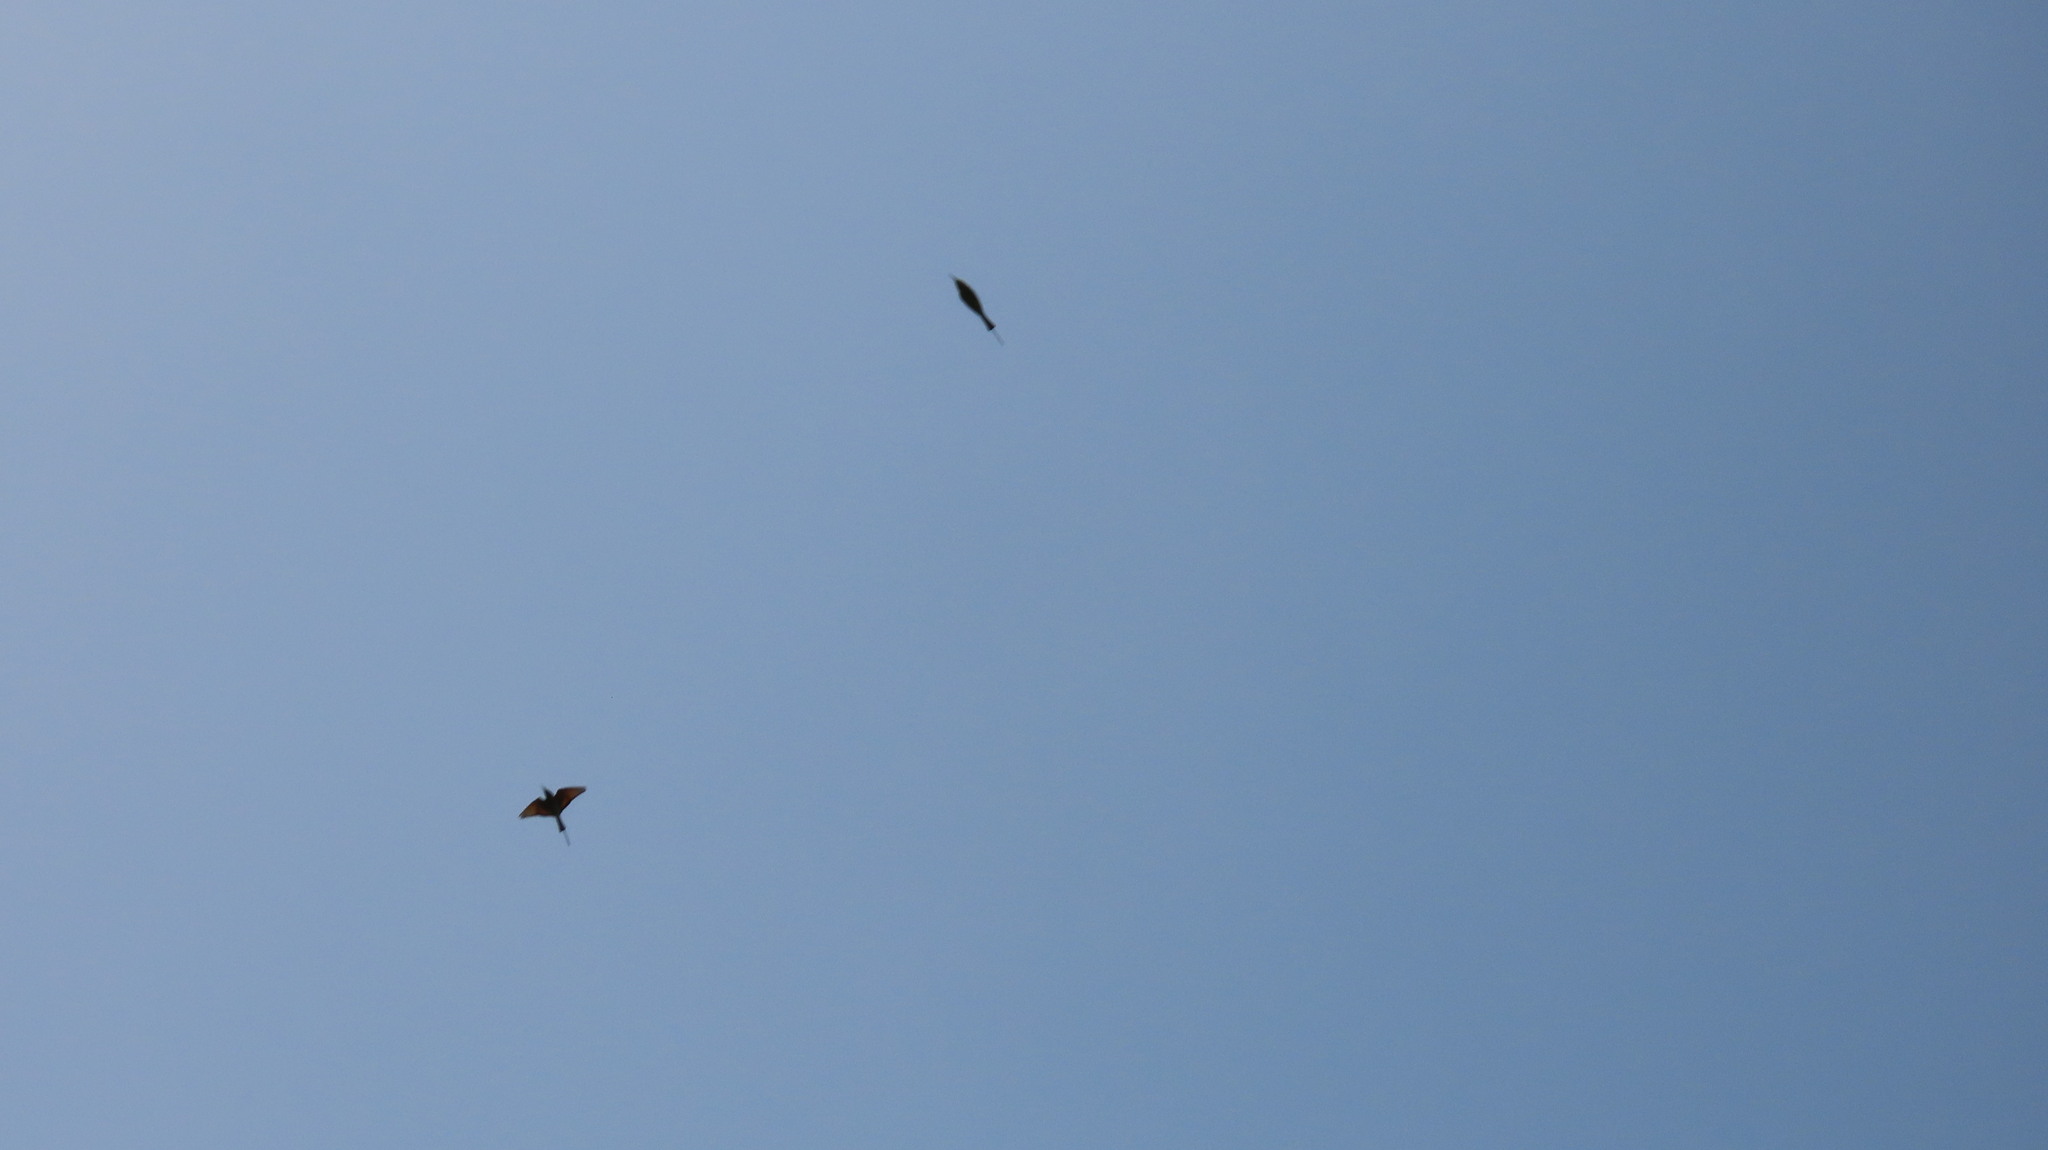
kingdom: Animalia
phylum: Chordata
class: Aves
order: Coraciiformes
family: Meropidae
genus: Merops
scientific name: Merops orientalis
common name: Green bee-eater
